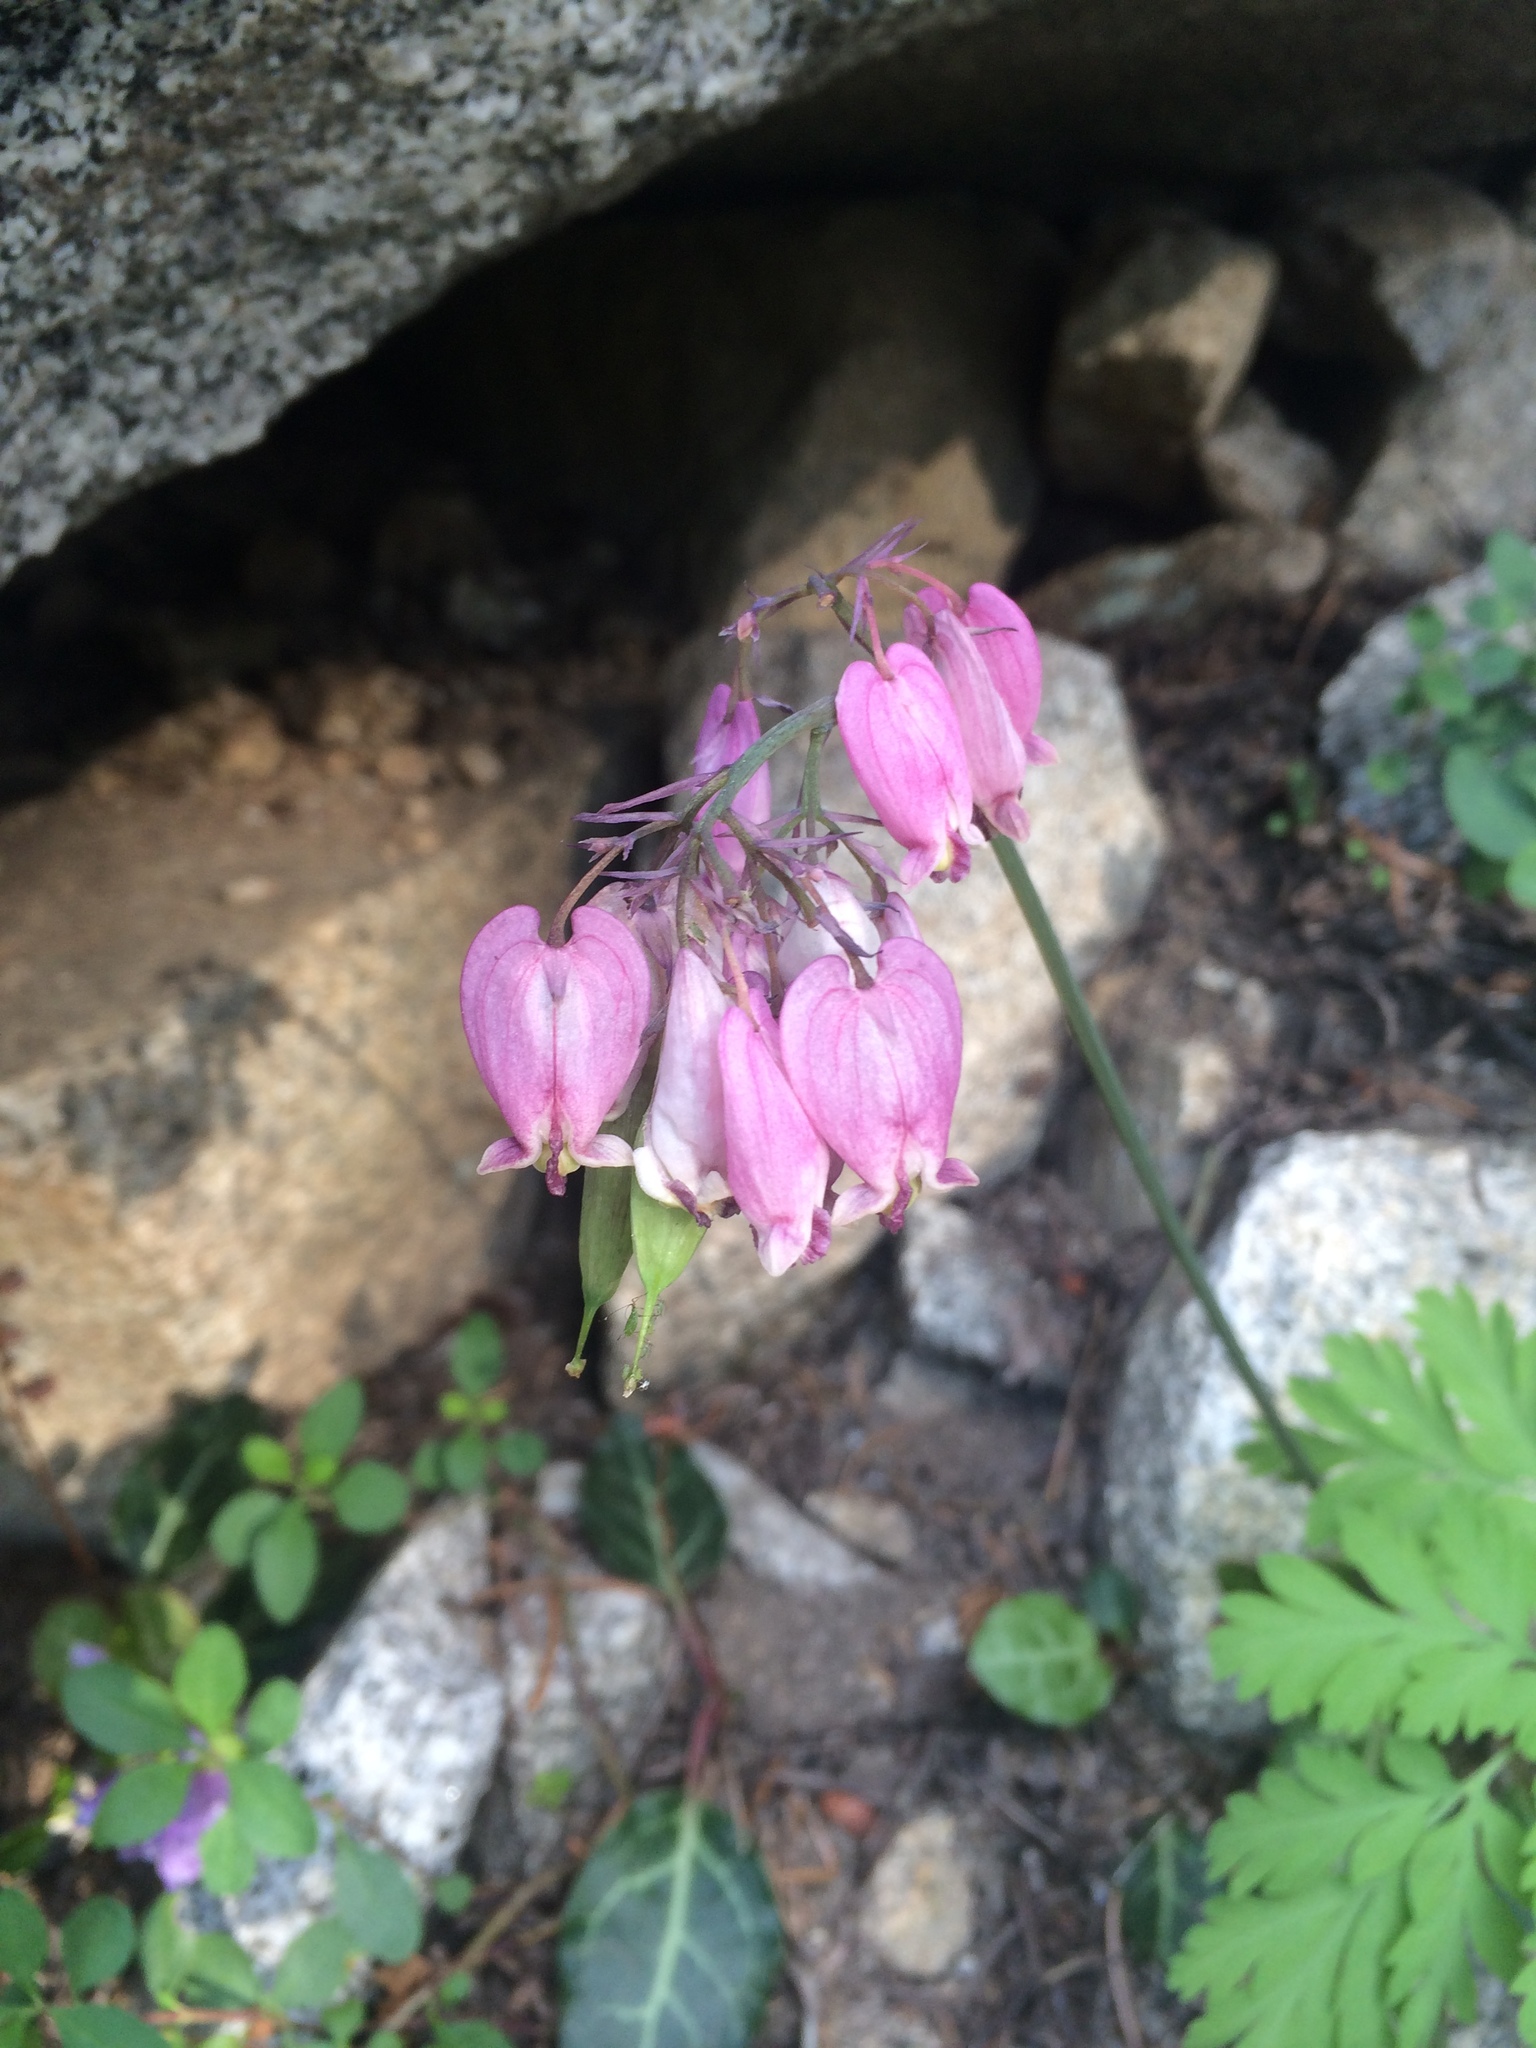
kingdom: Plantae
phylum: Tracheophyta
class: Magnoliopsida
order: Ranunculales
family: Papaveraceae
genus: Dicentra
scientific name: Dicentra formosa
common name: Bleeding-heart
